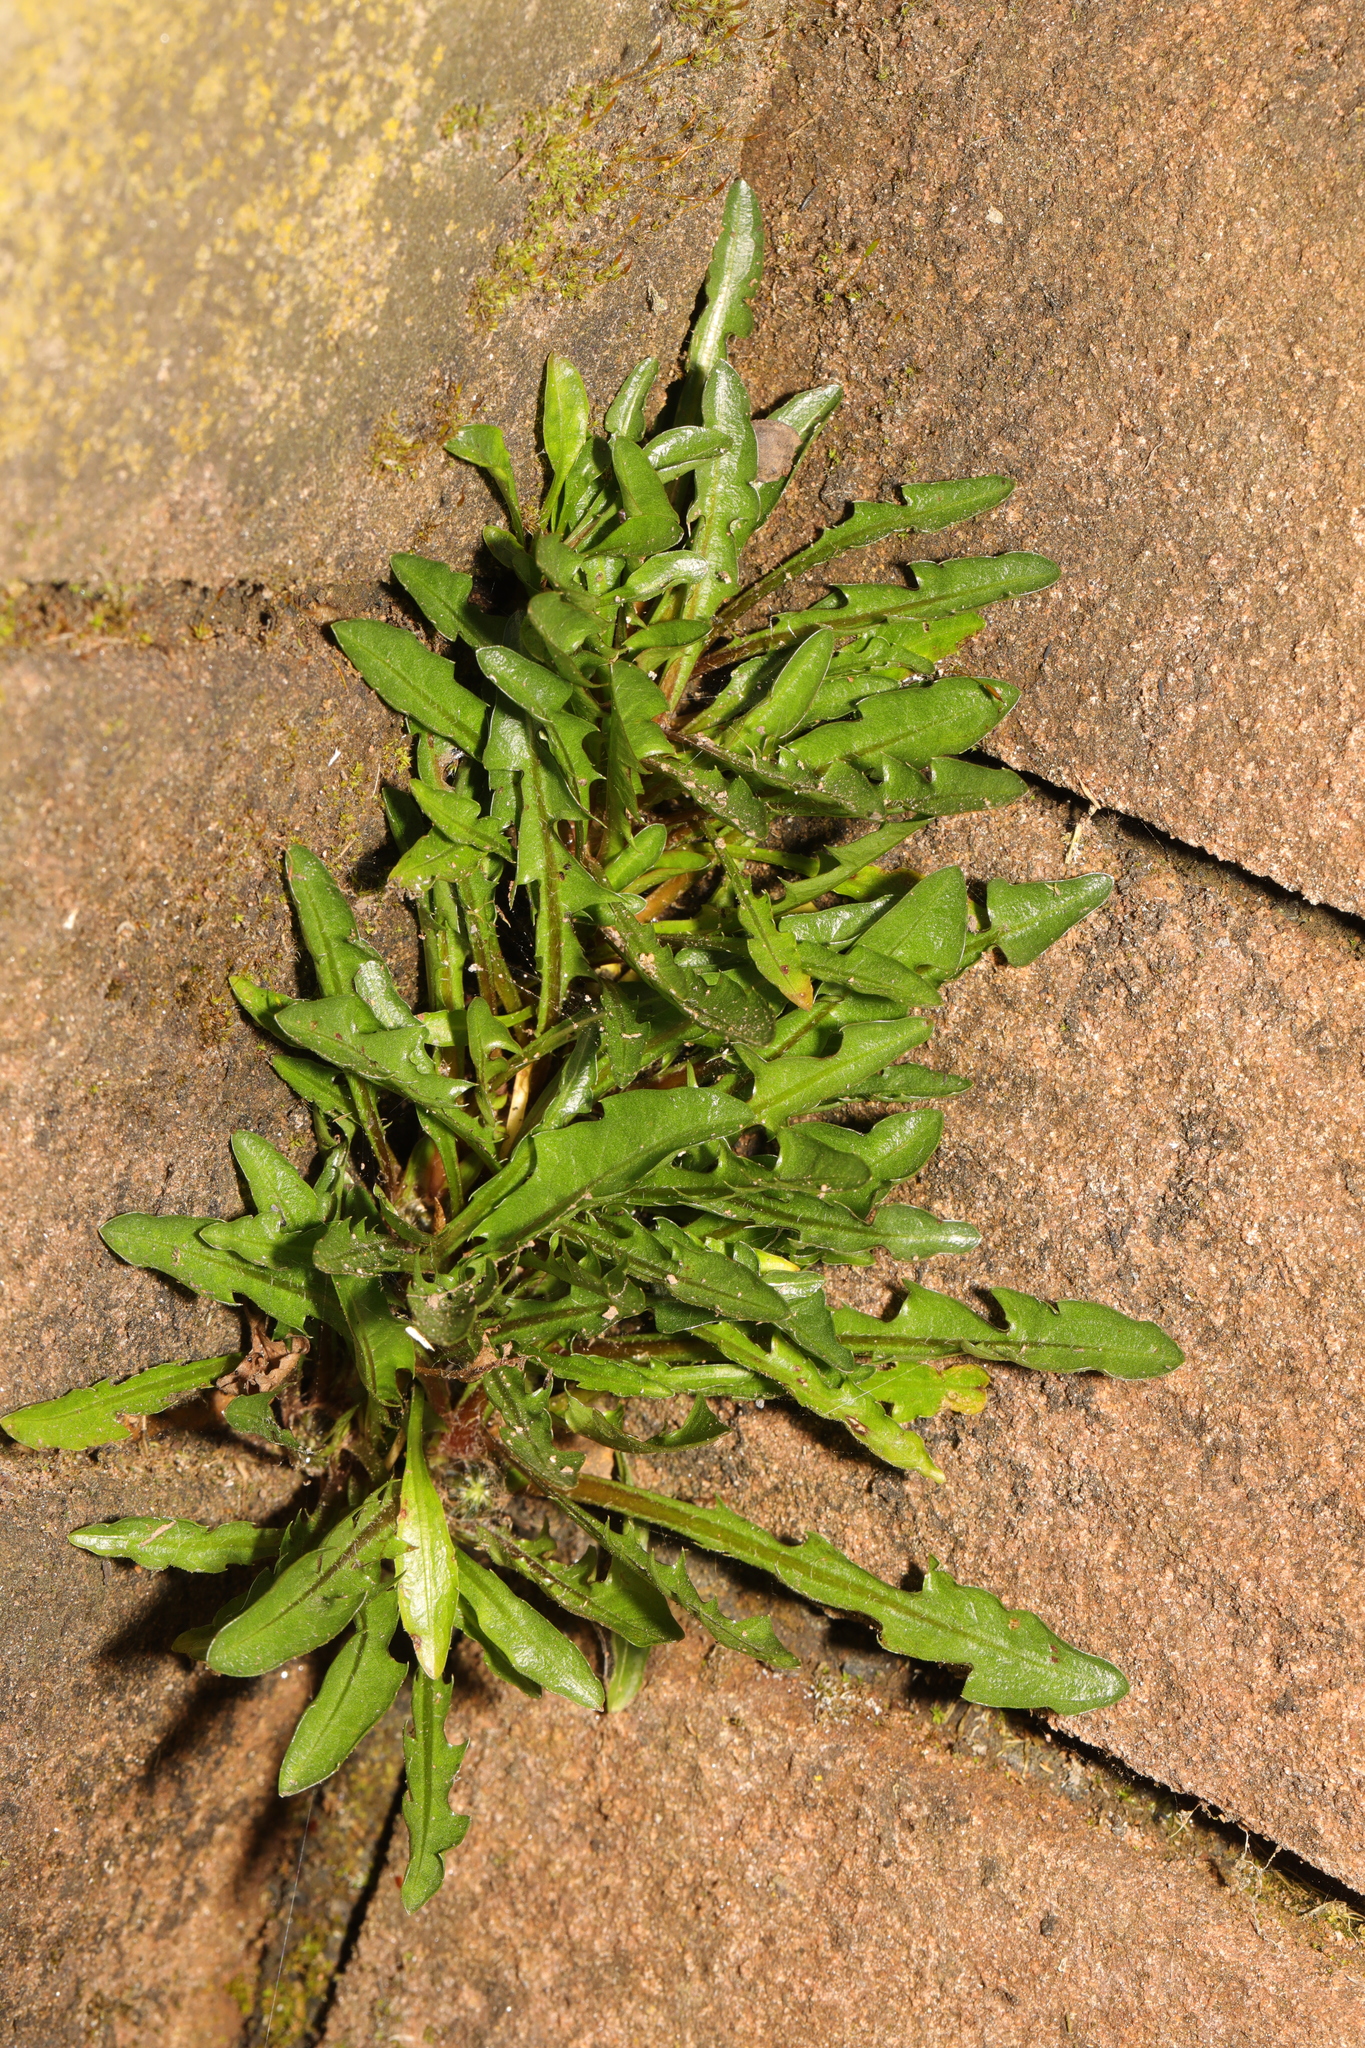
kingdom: Plantae
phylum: Tracheophyta
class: Magnoliopsida
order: Asterales
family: Asteraceae
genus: Taraxacum
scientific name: Taraxacum officinale
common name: Common dandelion
